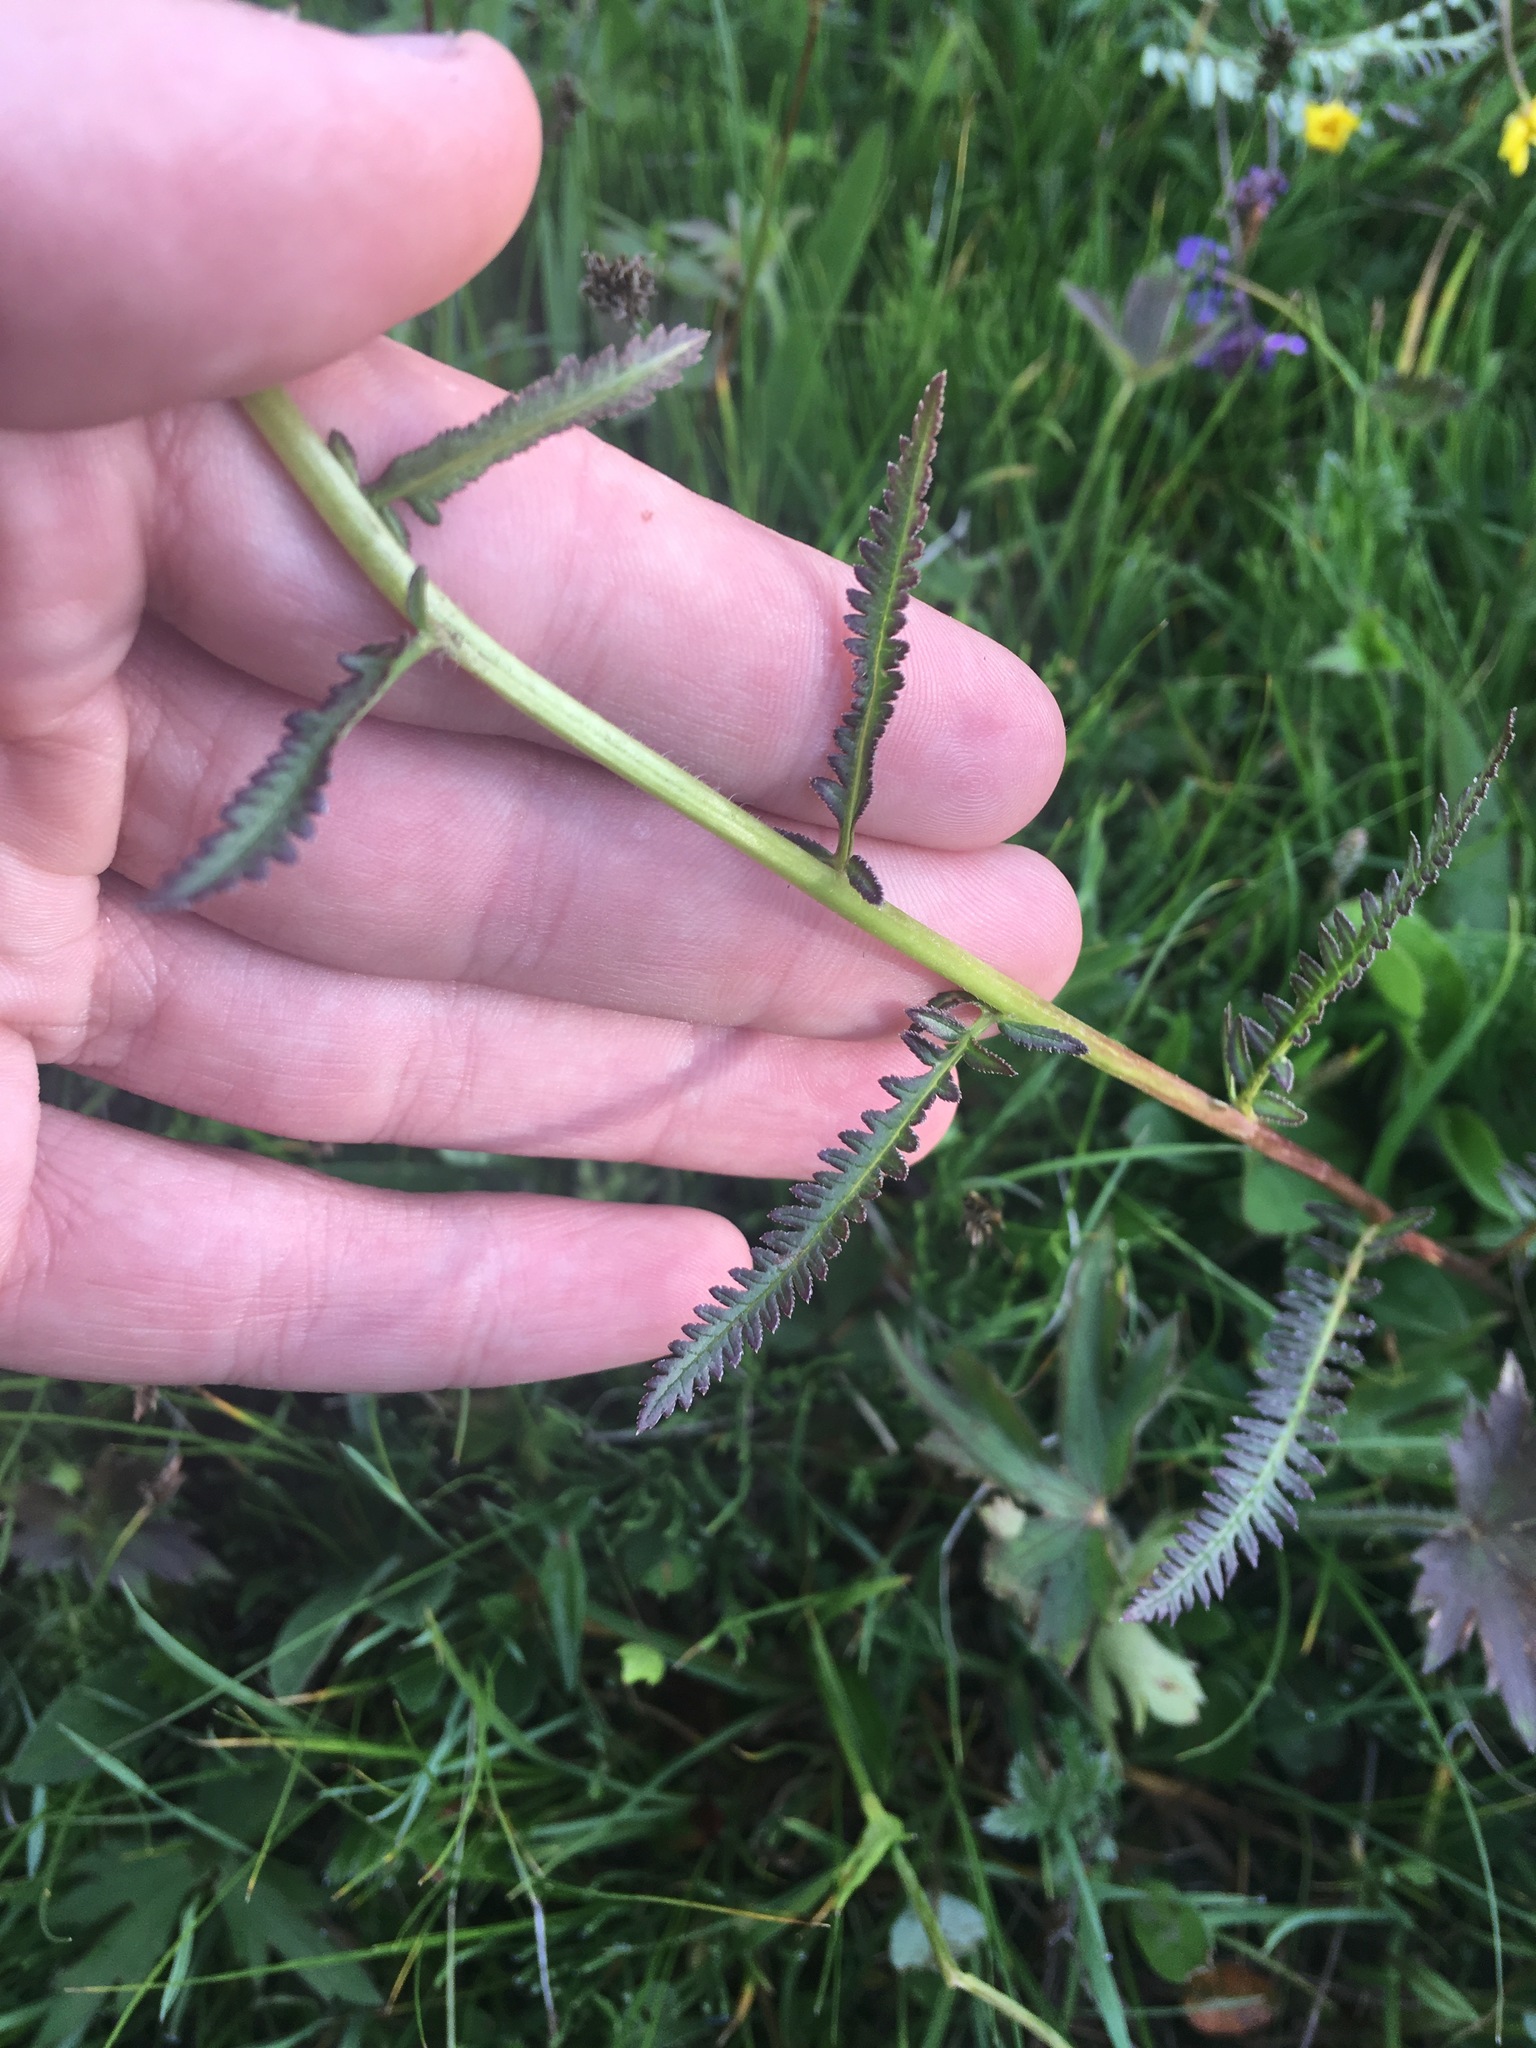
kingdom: Plantae
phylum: Tracheophyta
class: Magnoliopsida
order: Lamiales
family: Orobanchaceae
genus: Pedicularis
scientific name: Pedicularis compacta
